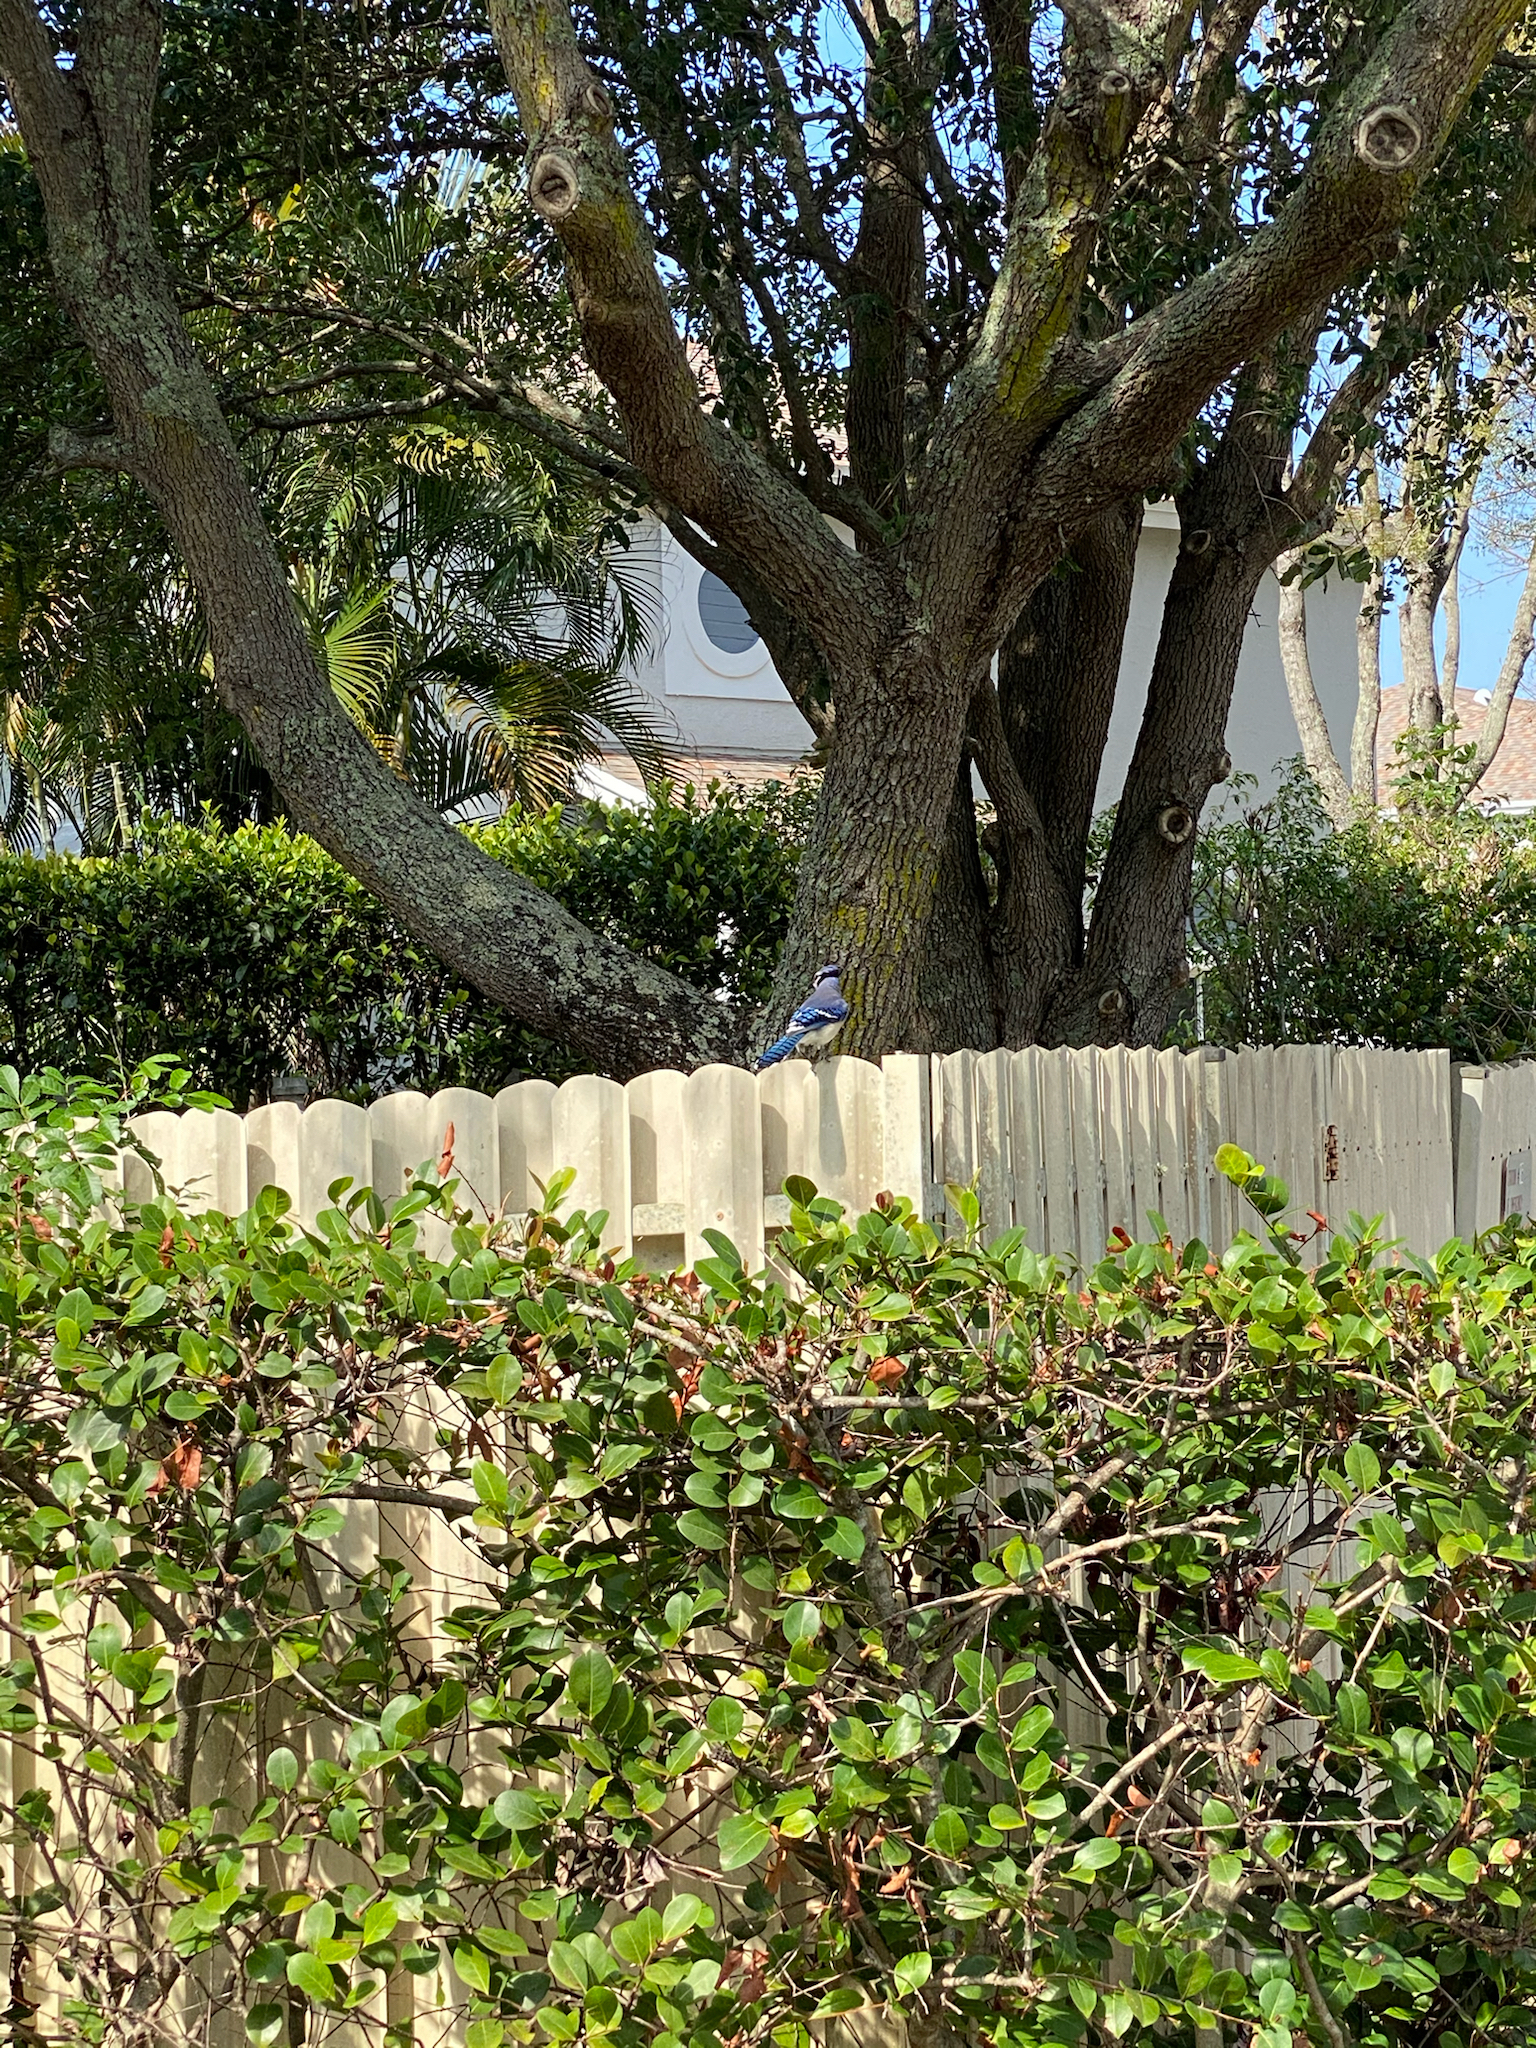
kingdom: Animalia
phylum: Chordata
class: Aves
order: Passeriformes
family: Corvidae
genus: Cyanocitta
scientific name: Cyanocitta cristata
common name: Blue jay
